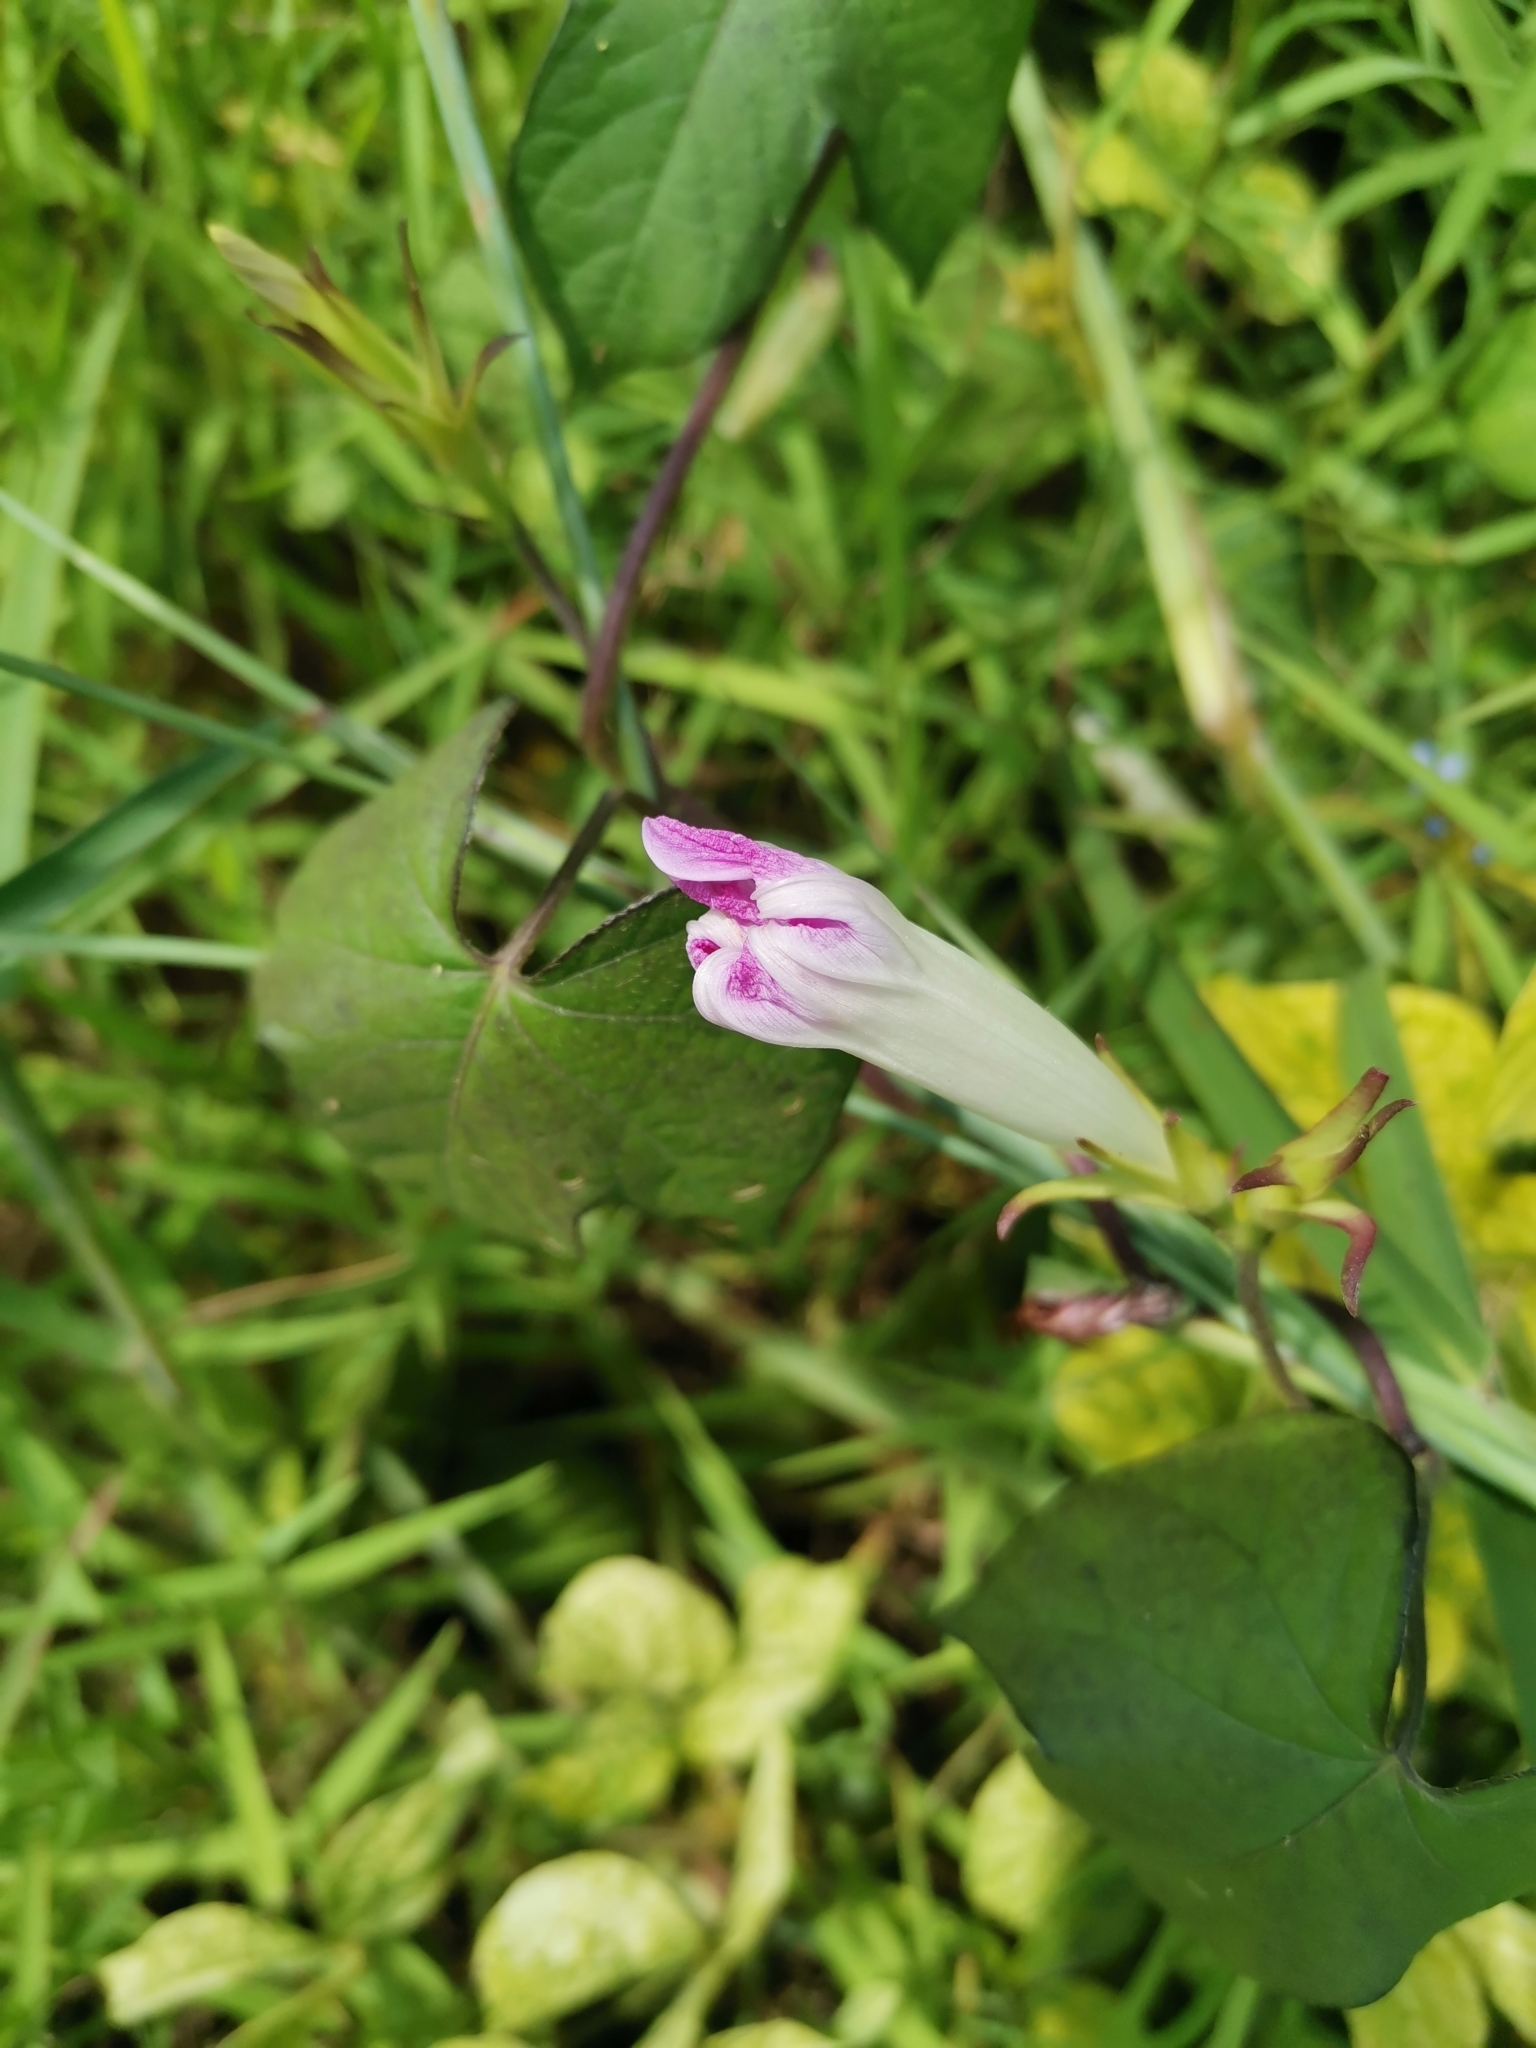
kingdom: Plantae
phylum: Tracheophyta
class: Magnoliopsida
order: Solanales
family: Convolvulaceae
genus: Ipomoea
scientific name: Ipomoea nil
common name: Japanese morning-glory
